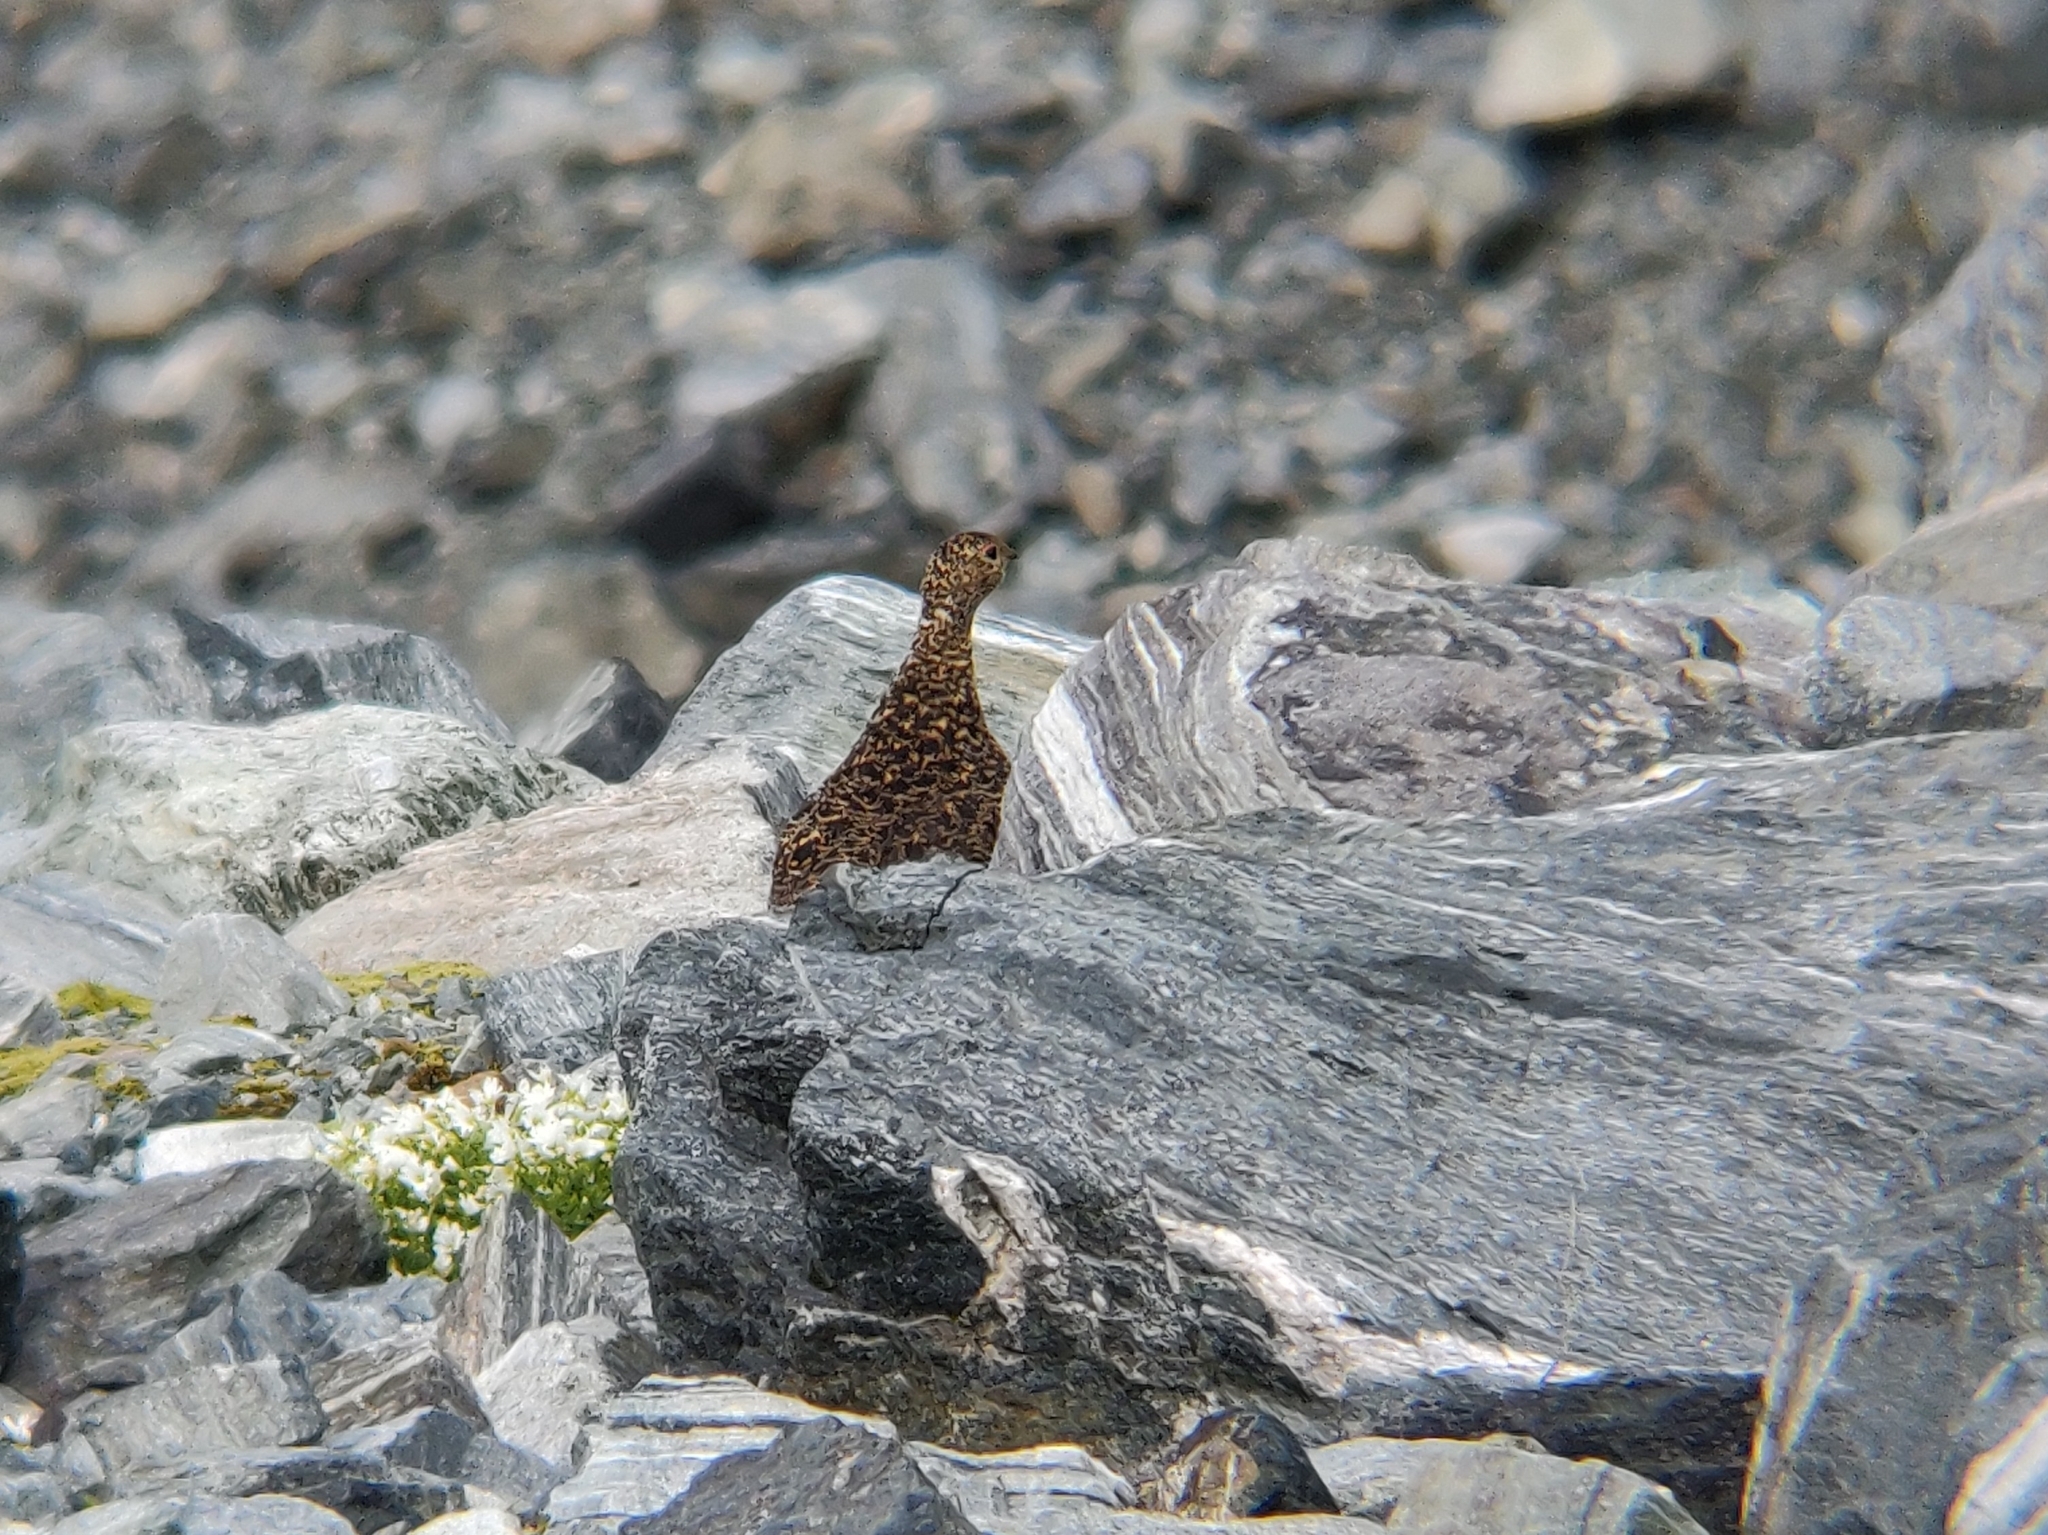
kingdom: Animalia
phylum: Chordata
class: Aves
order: Galliformes
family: Phasianidae
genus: Lagopus
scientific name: Lagopus muta
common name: Rock ptarmigan
